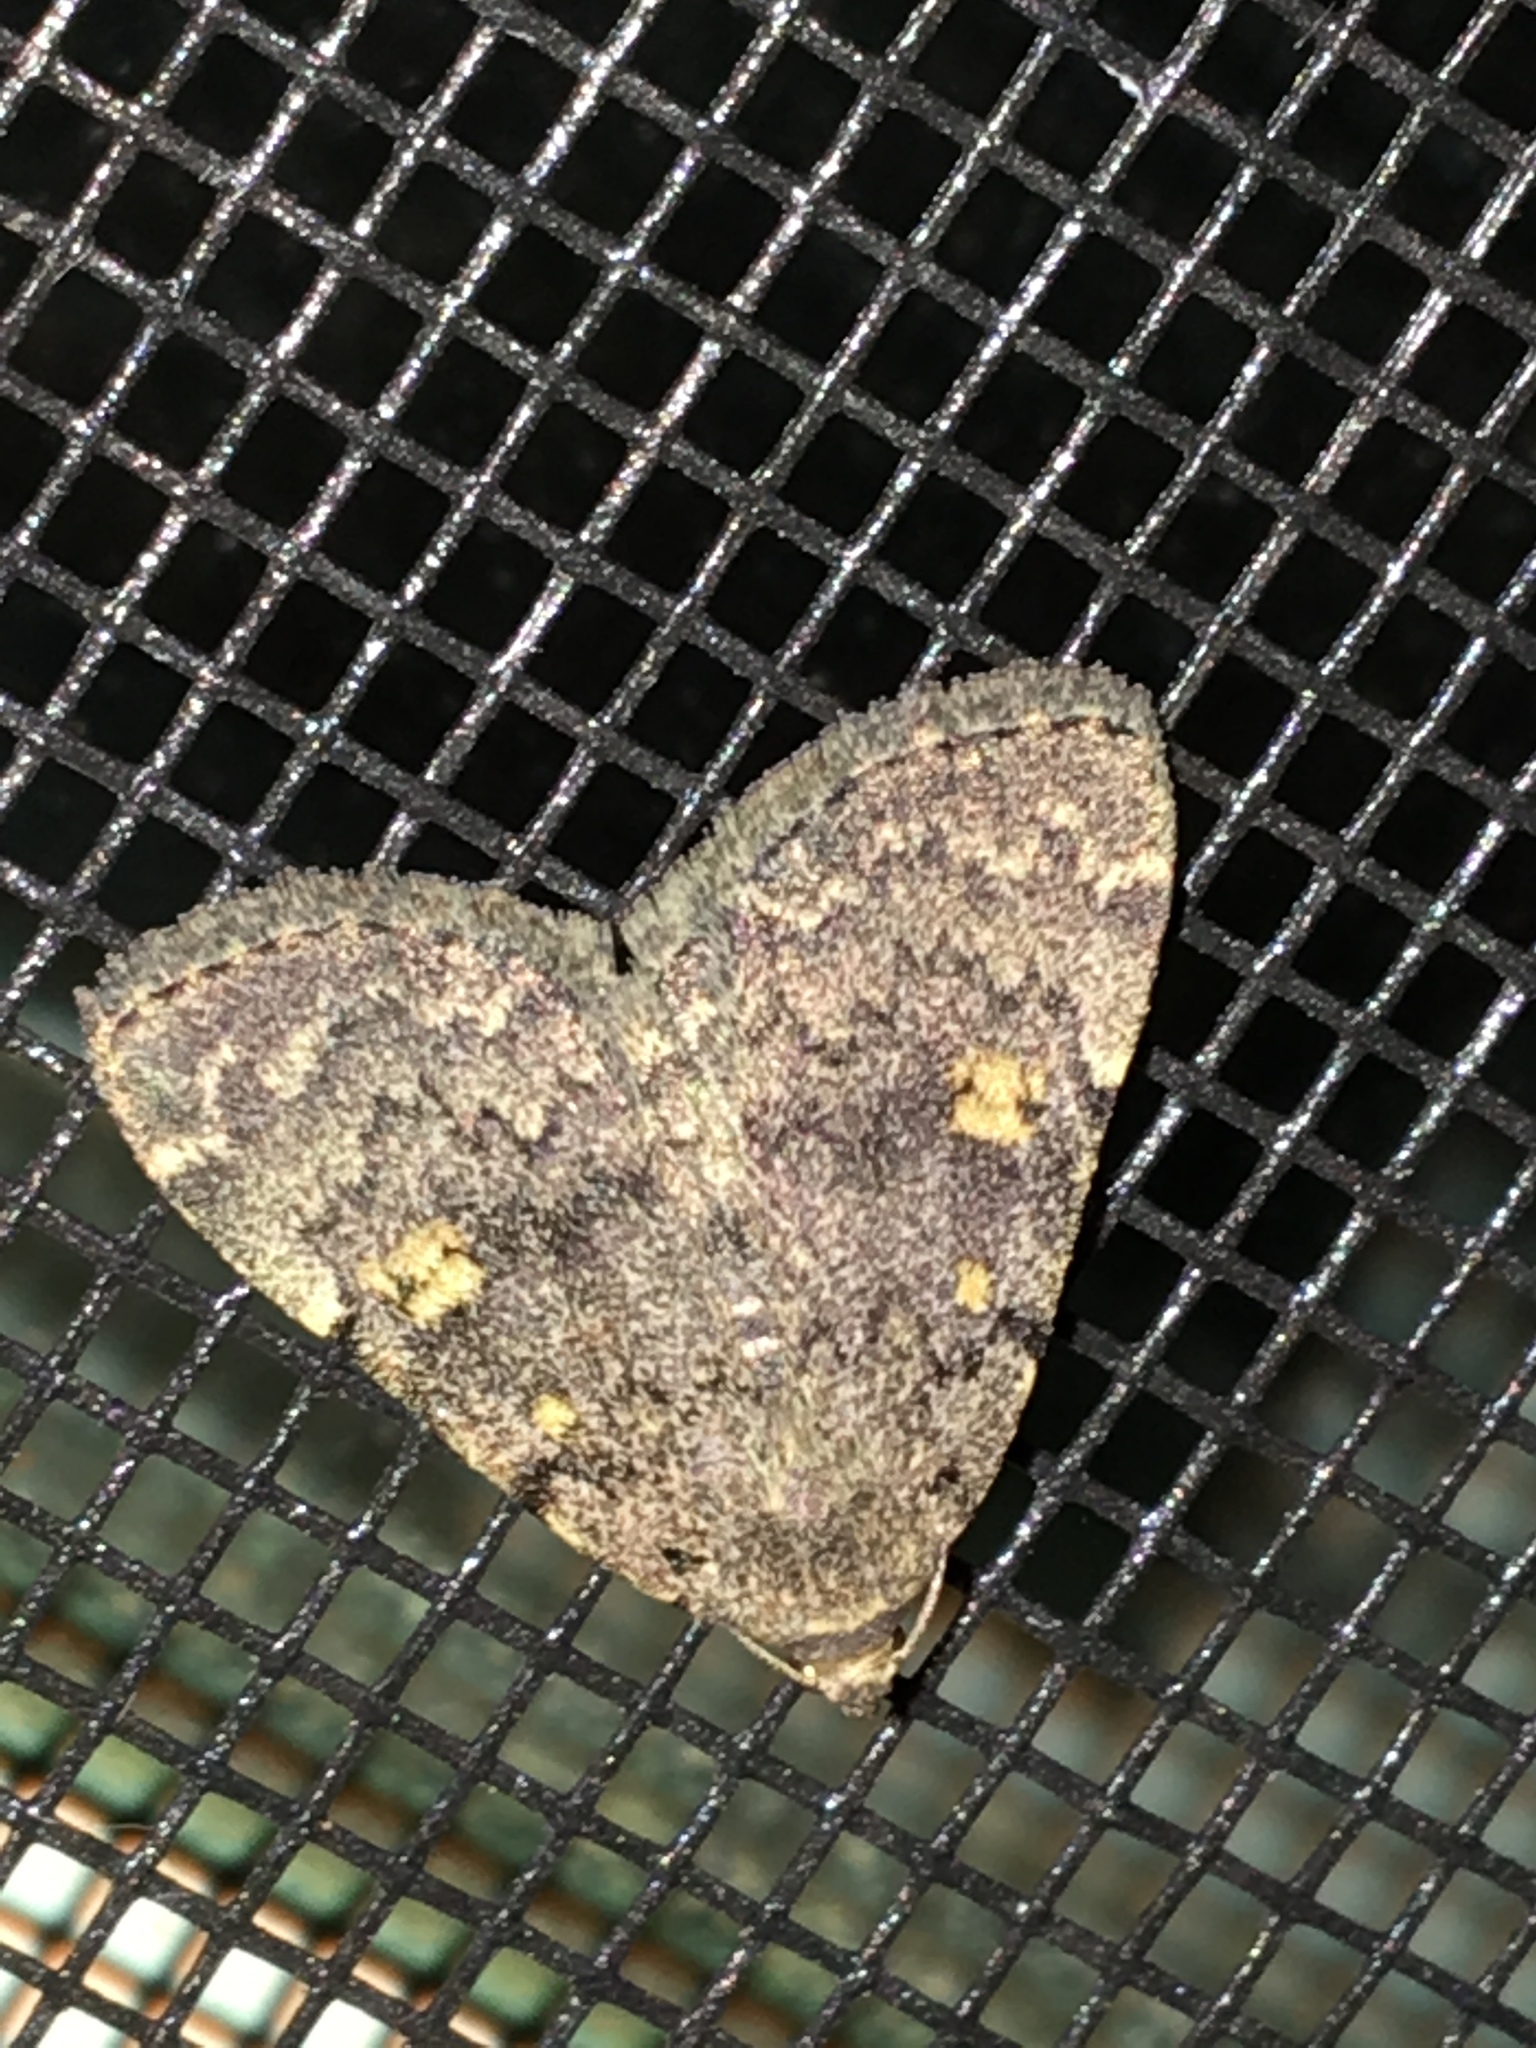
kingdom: Animalia
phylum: Arthropoda
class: Insecta
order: Lepidoptera
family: Erebidae
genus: Idia
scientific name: Idia aemula
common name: Common idia moth
